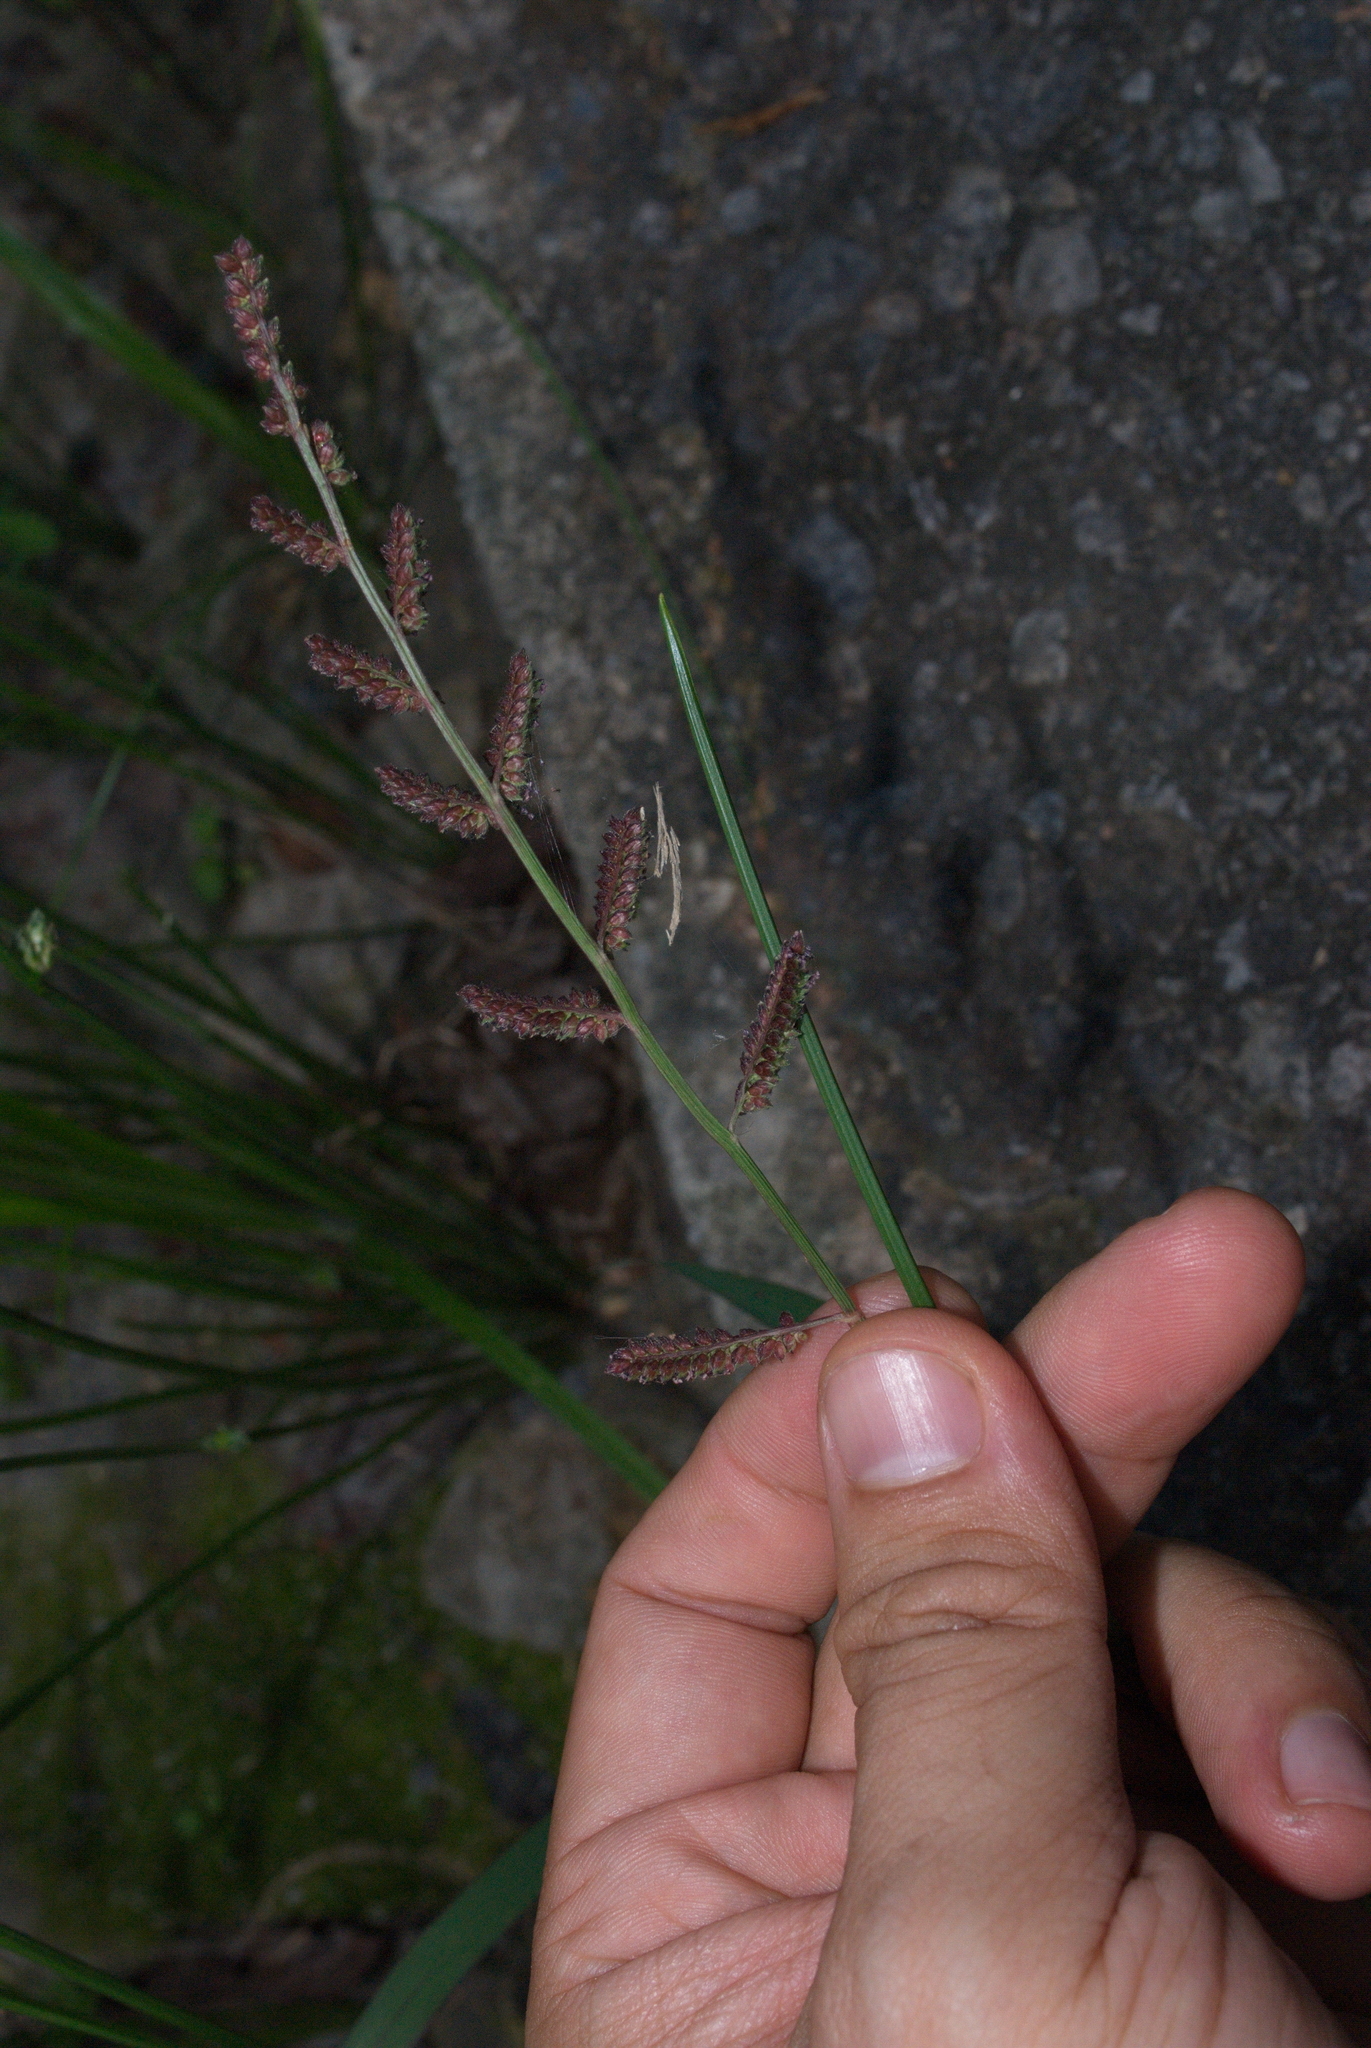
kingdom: Plantae
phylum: Tracheophyta
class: Liliopsida
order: Poales
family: Poaceae
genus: Echinochloa
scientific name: Echinochloa colonum
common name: Jungle rice
